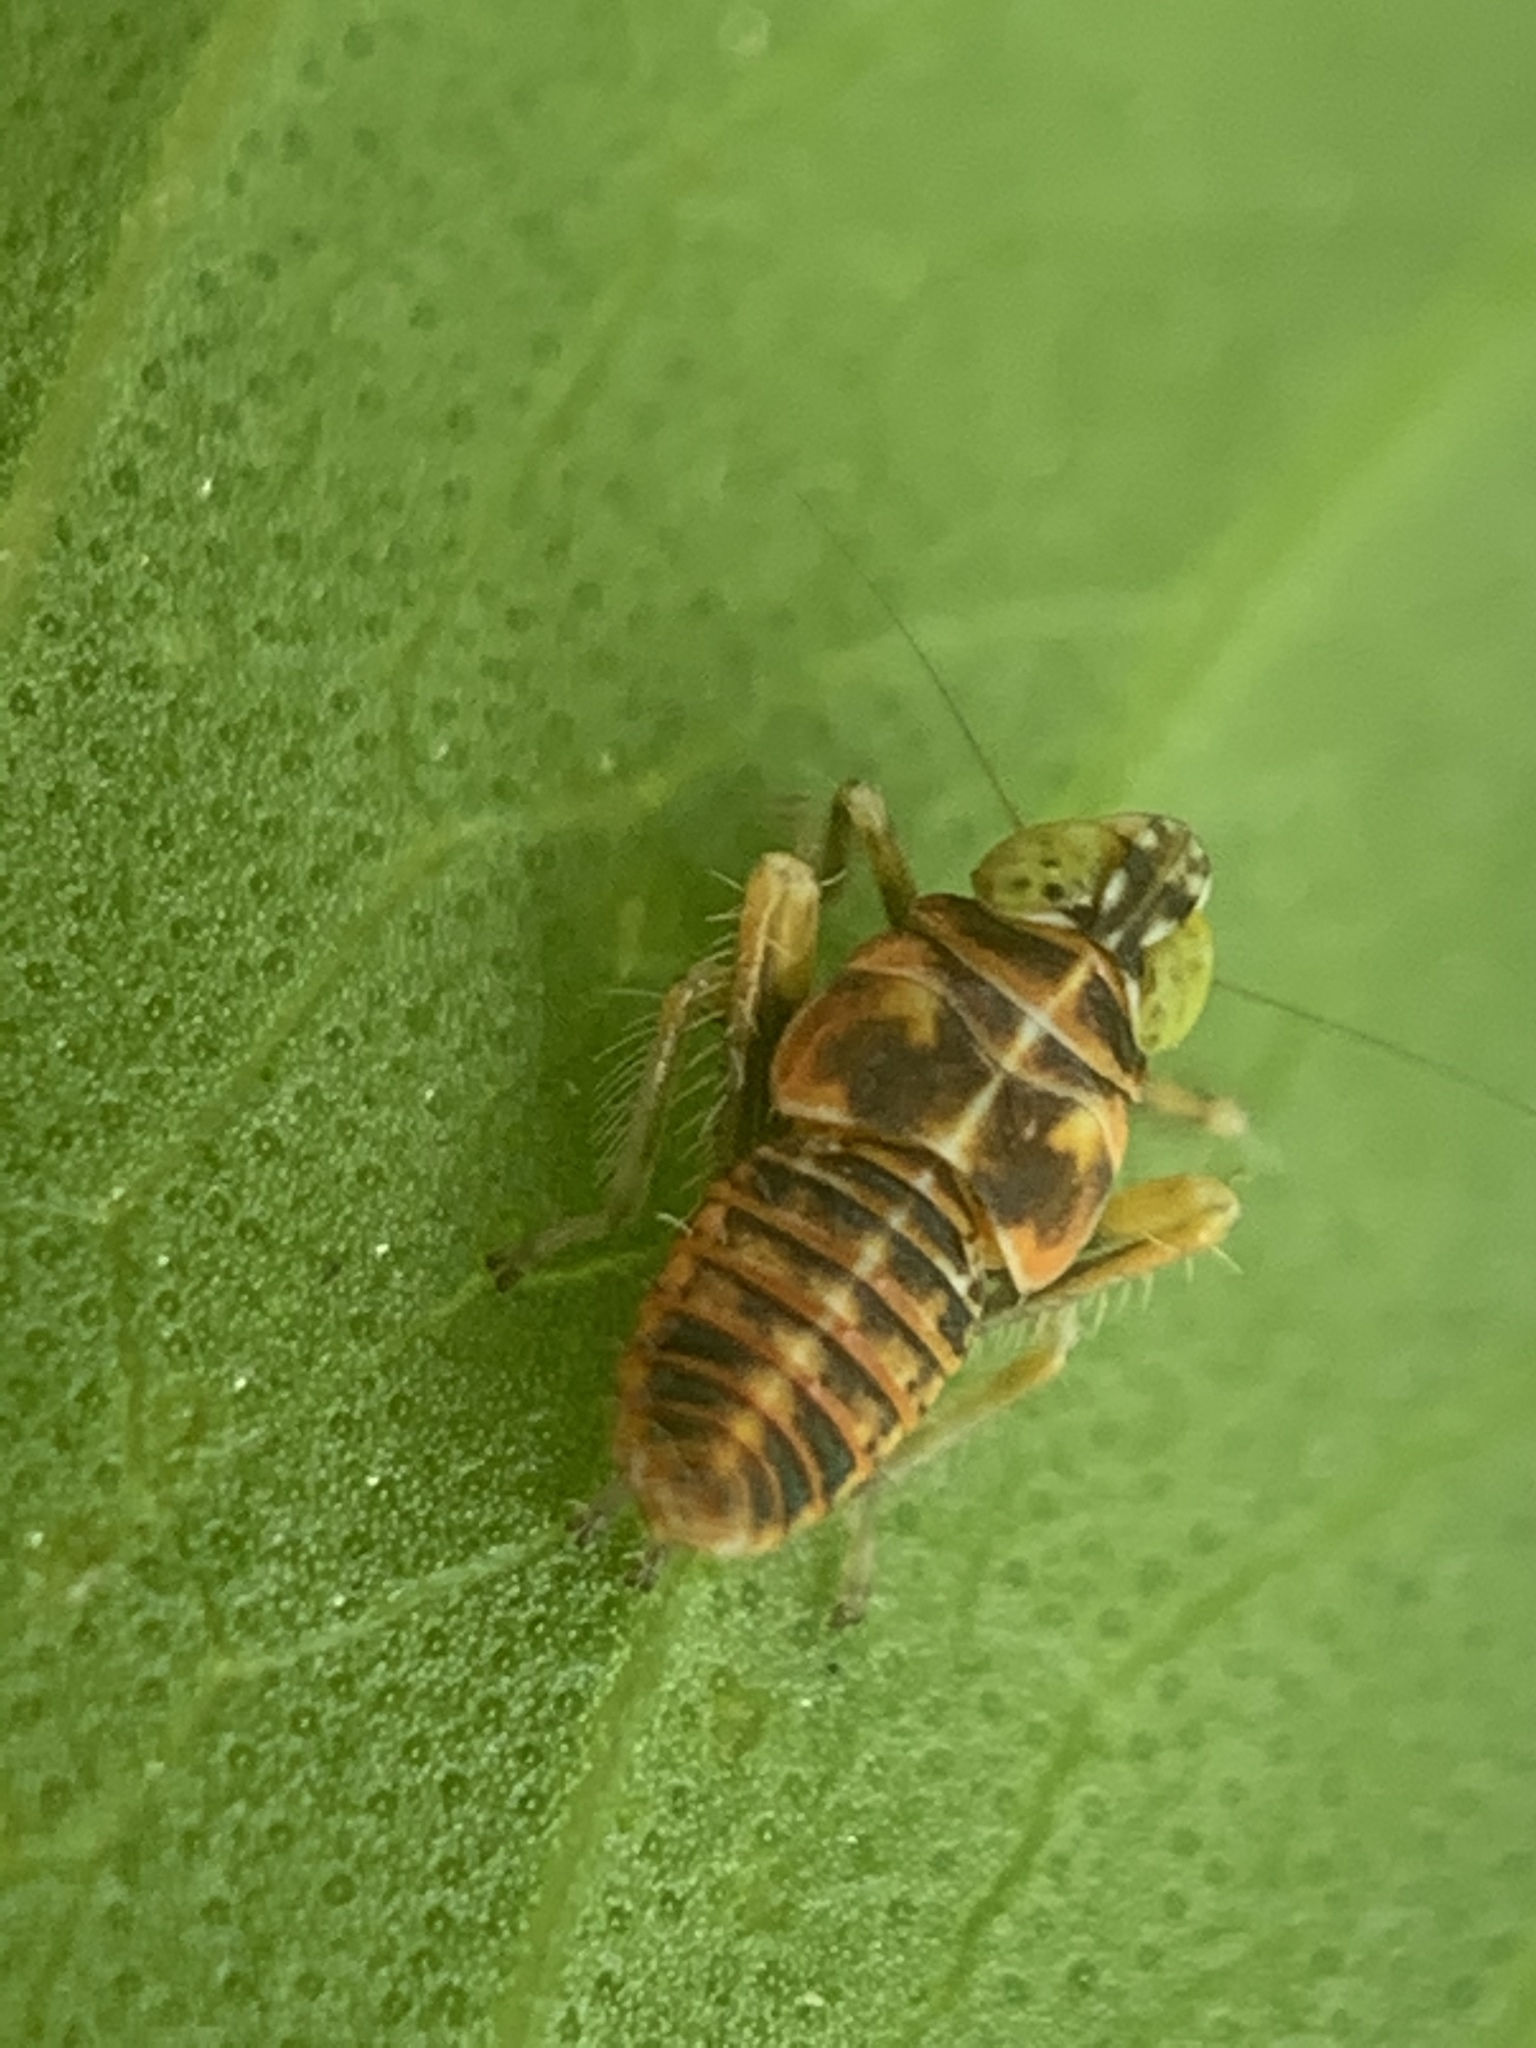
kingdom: Animalia
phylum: Arthropoda
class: Insecta
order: Hemiptera
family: Cicadellidae
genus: Jikradia
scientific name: Jikradia olitoria
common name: Coppery leafhopper
